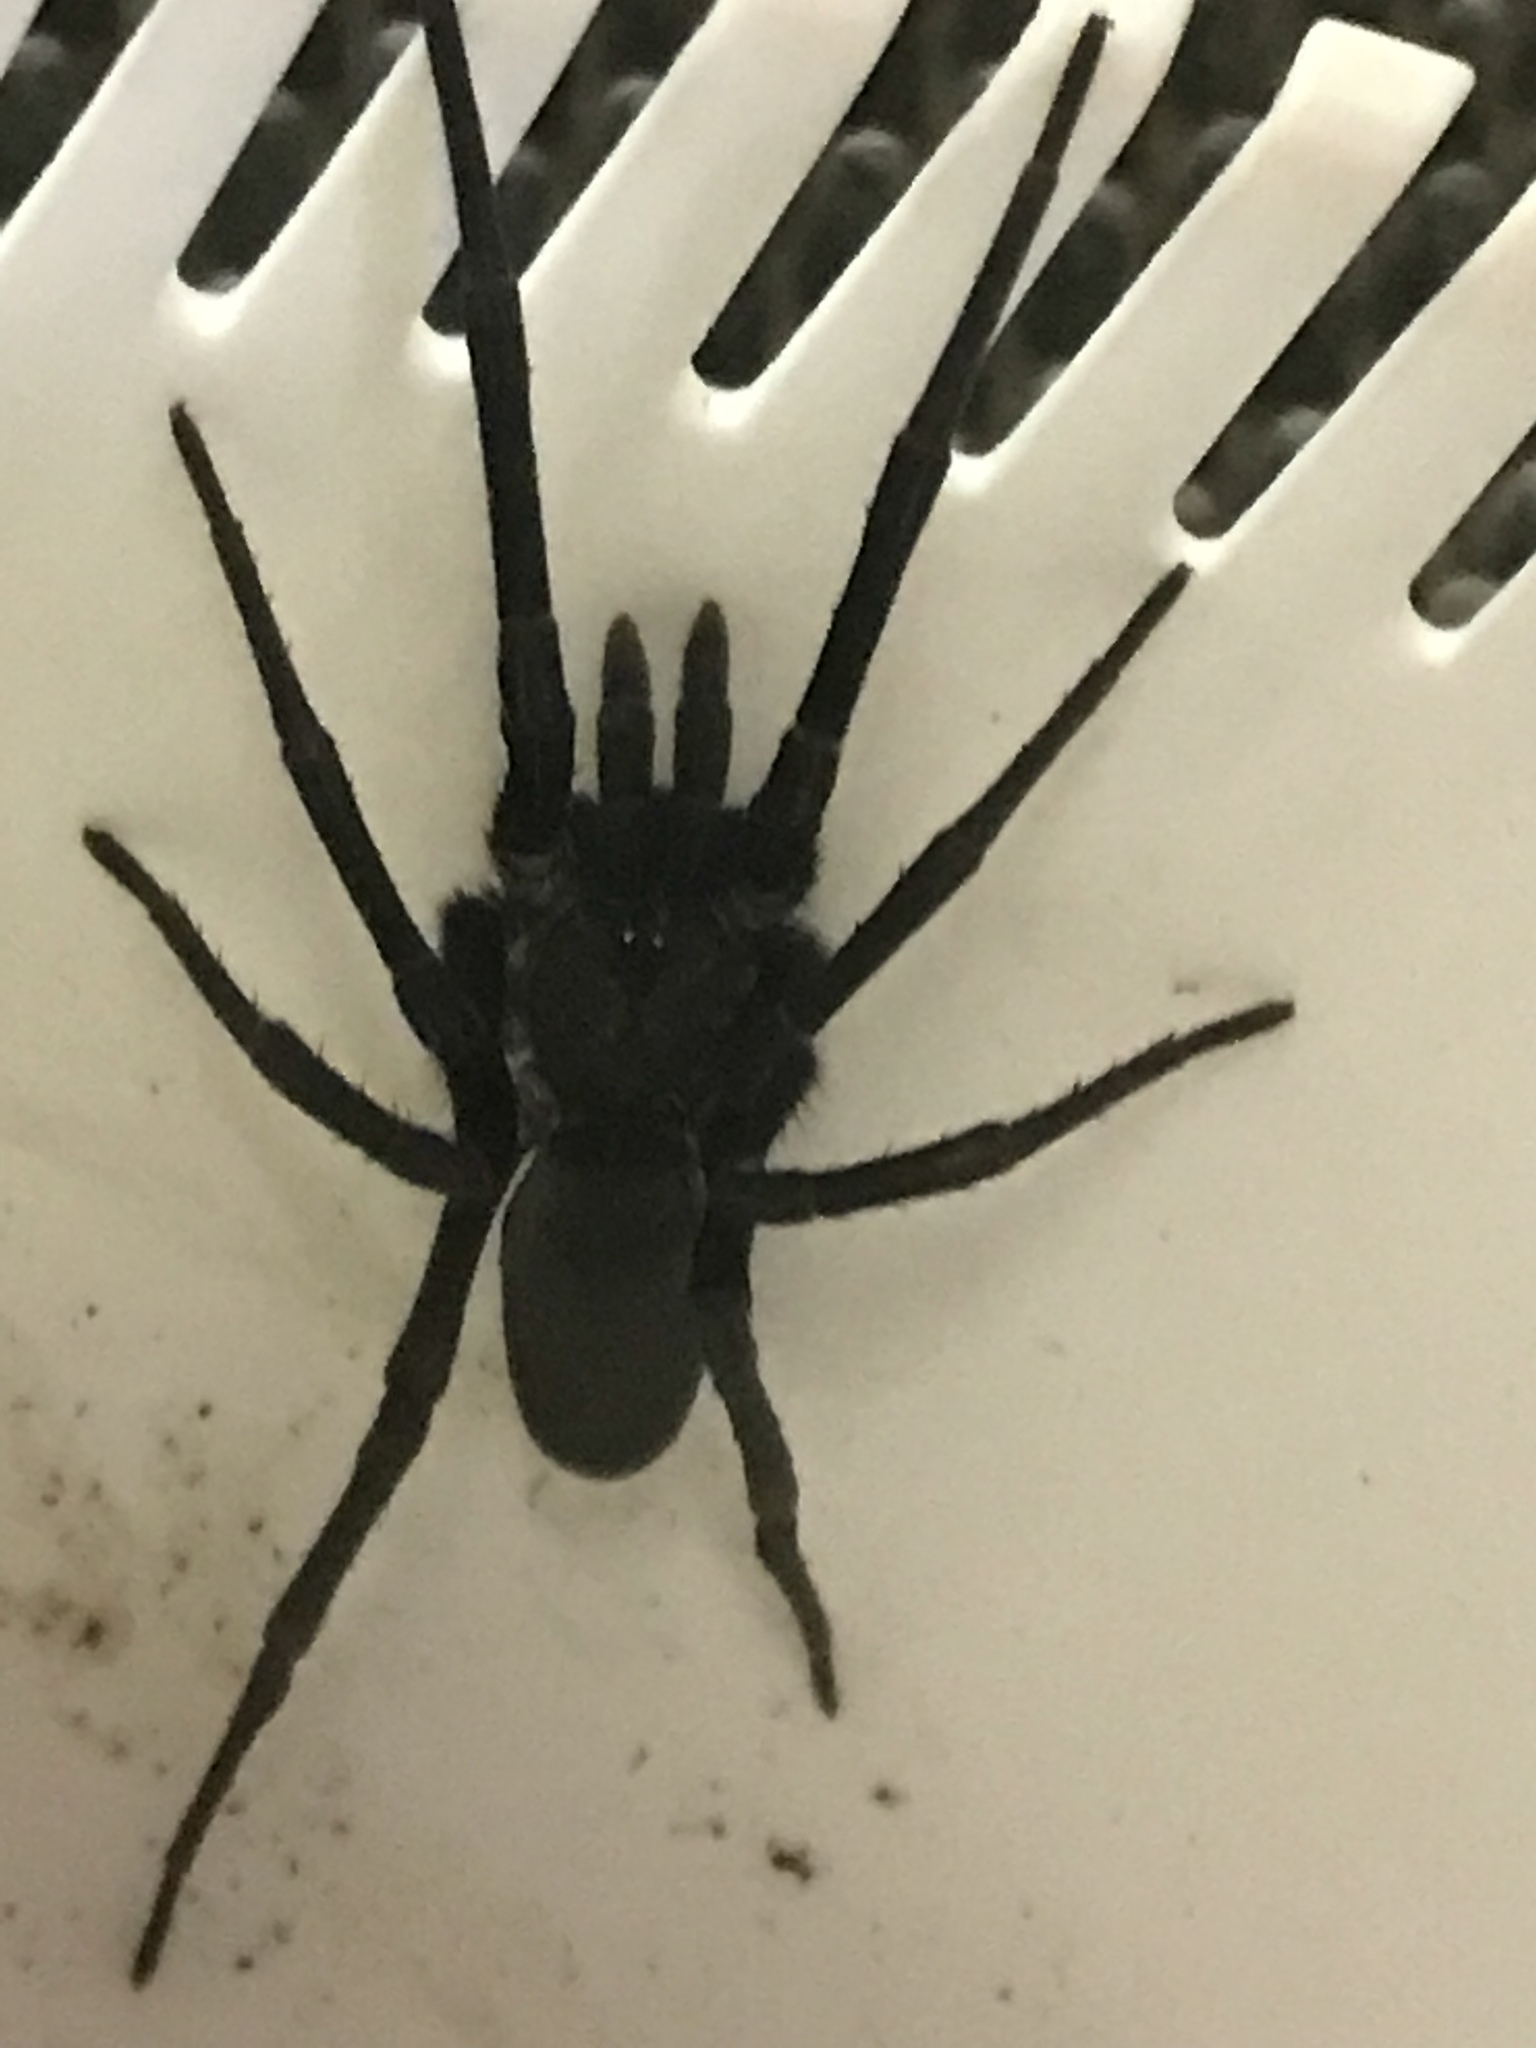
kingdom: Animalia
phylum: Arthropoda
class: Arachnida
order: Araneae
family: Filistatidae
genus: Kukulcania
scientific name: Kukulcania hibernalis
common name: Crevice weaver
